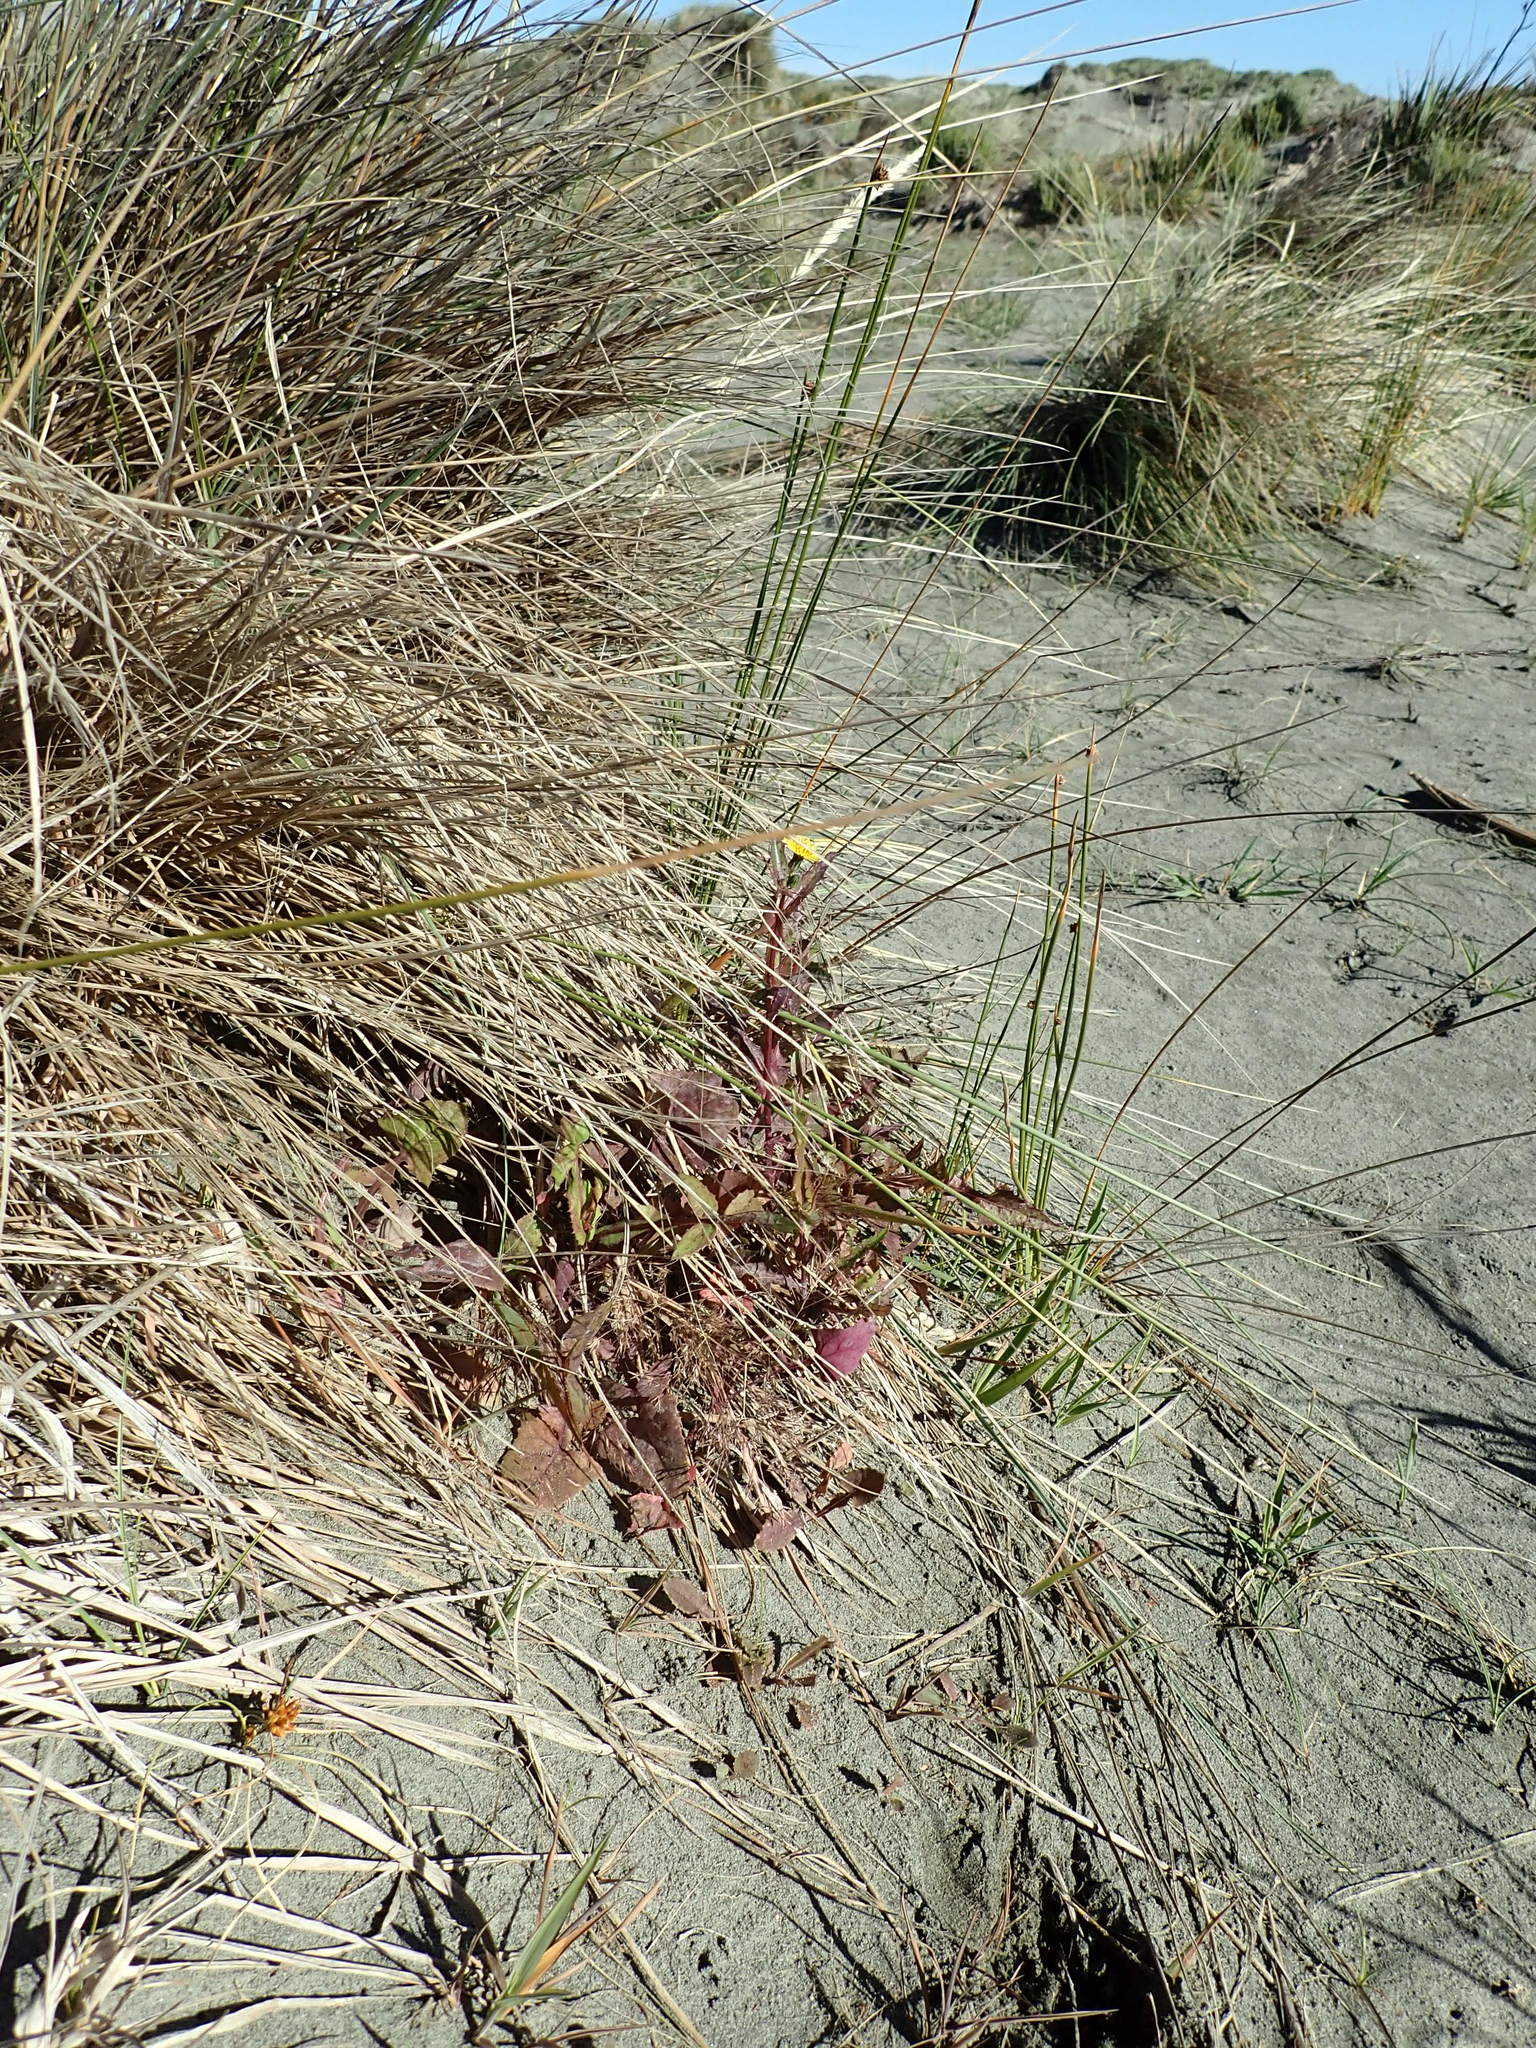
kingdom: Plantae
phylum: Tracheophyta
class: Magnoliopsida
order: Asterales
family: Asteraceae
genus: Sonchus
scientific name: Sonchus oleraceus
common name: Common sowthistle
